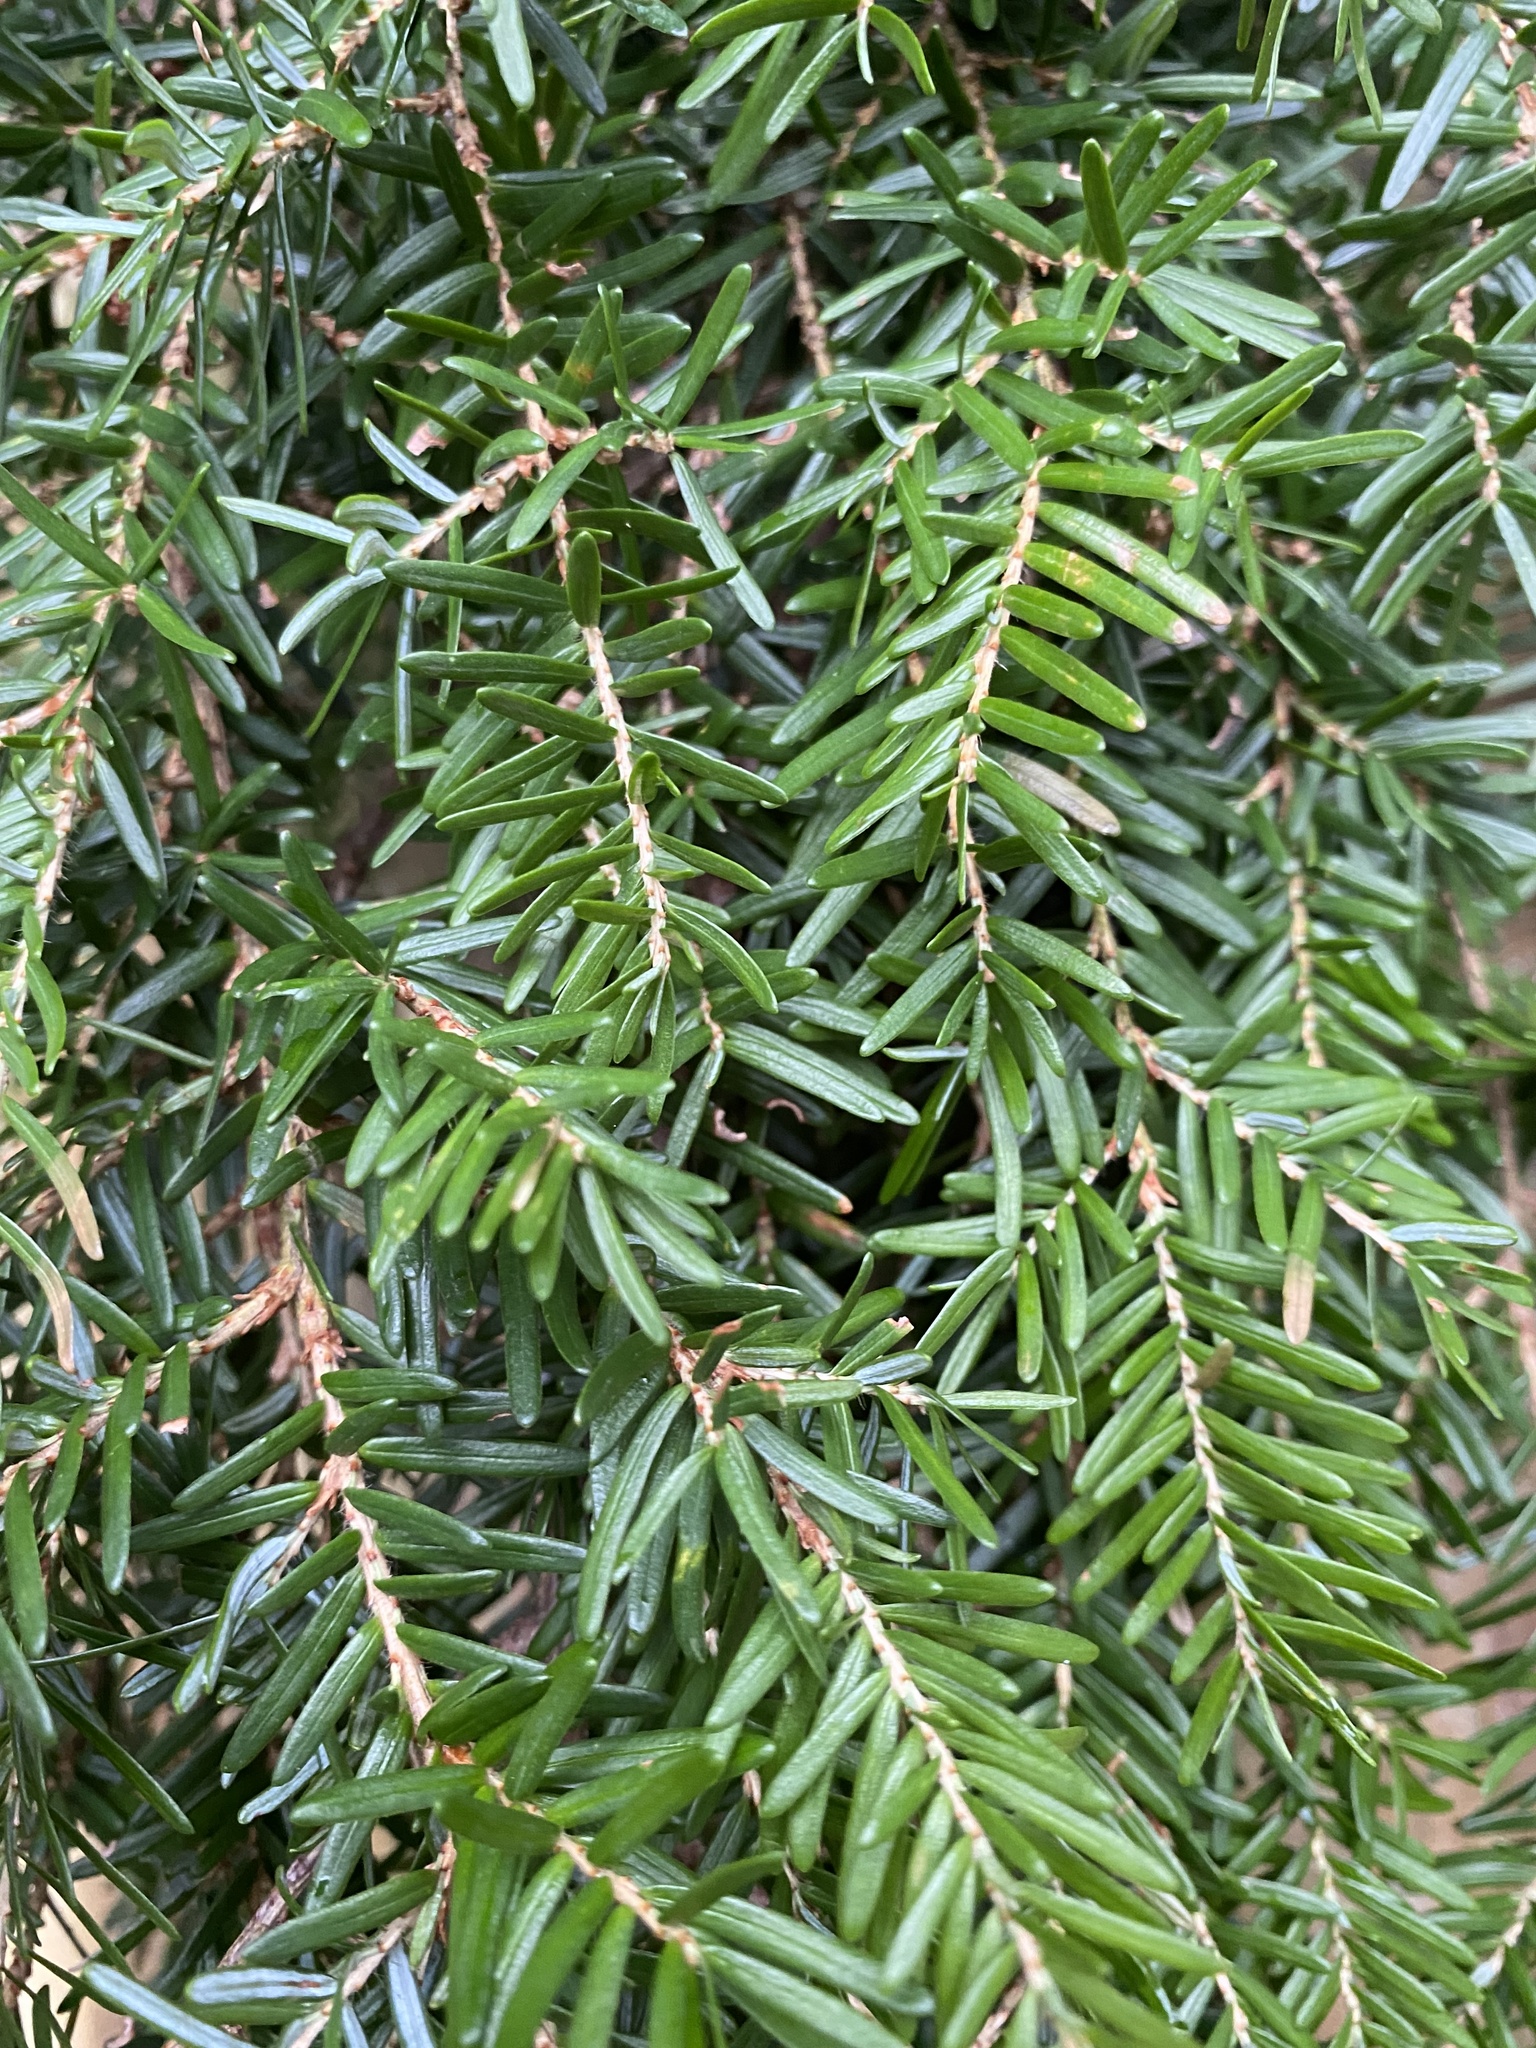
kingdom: Plantae
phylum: Tracheophyta
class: Pinopsida
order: Pinales
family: Pinaceae
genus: Tsuga
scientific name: Tsuga heterophylla
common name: Western hemlock
